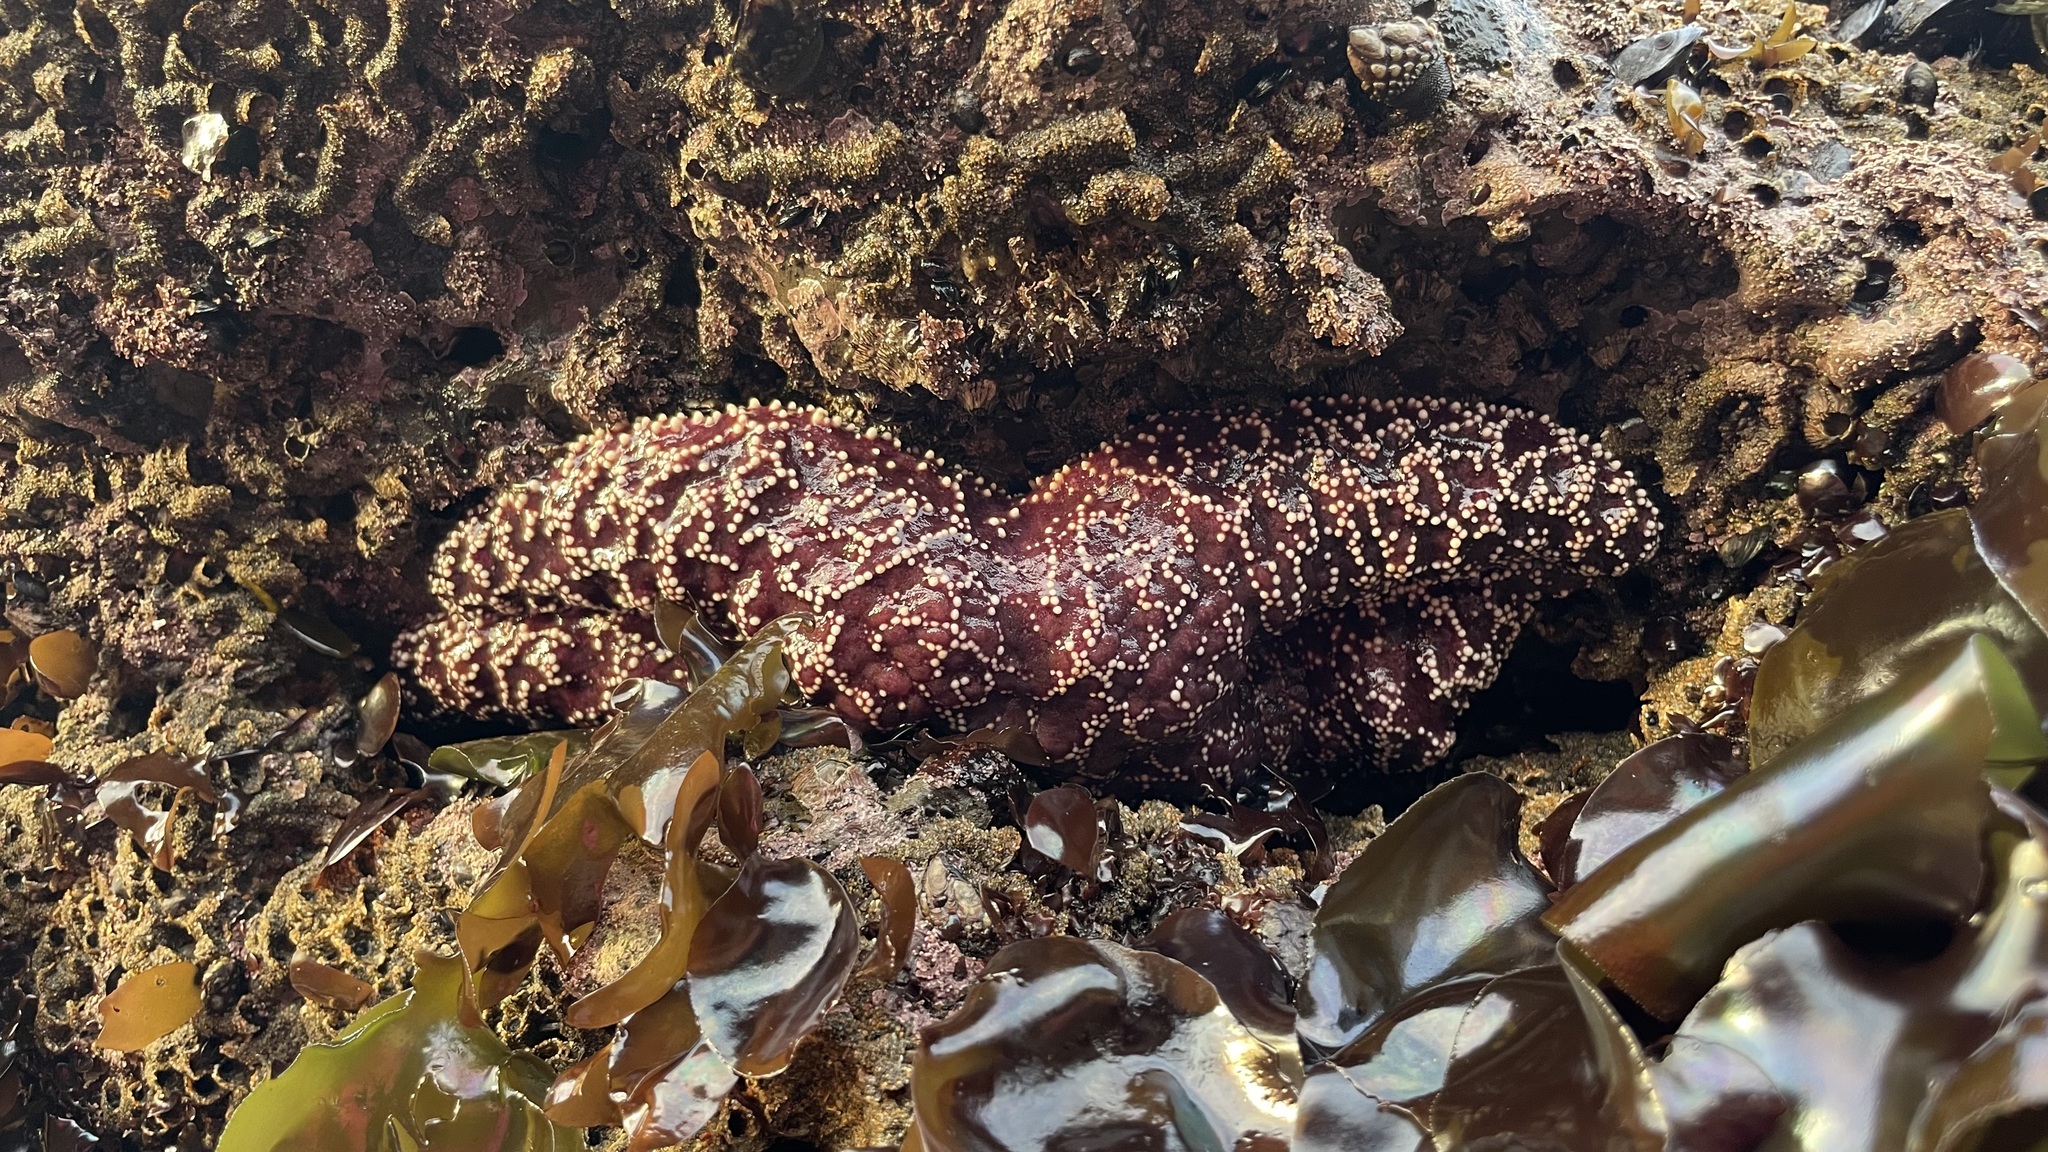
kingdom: Animalia
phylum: Echinodermata
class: Asteroidea
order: Forcipulatida
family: Asteriidae
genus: Pisaster
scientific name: Pisaster ochraceus
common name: Ochre stars
